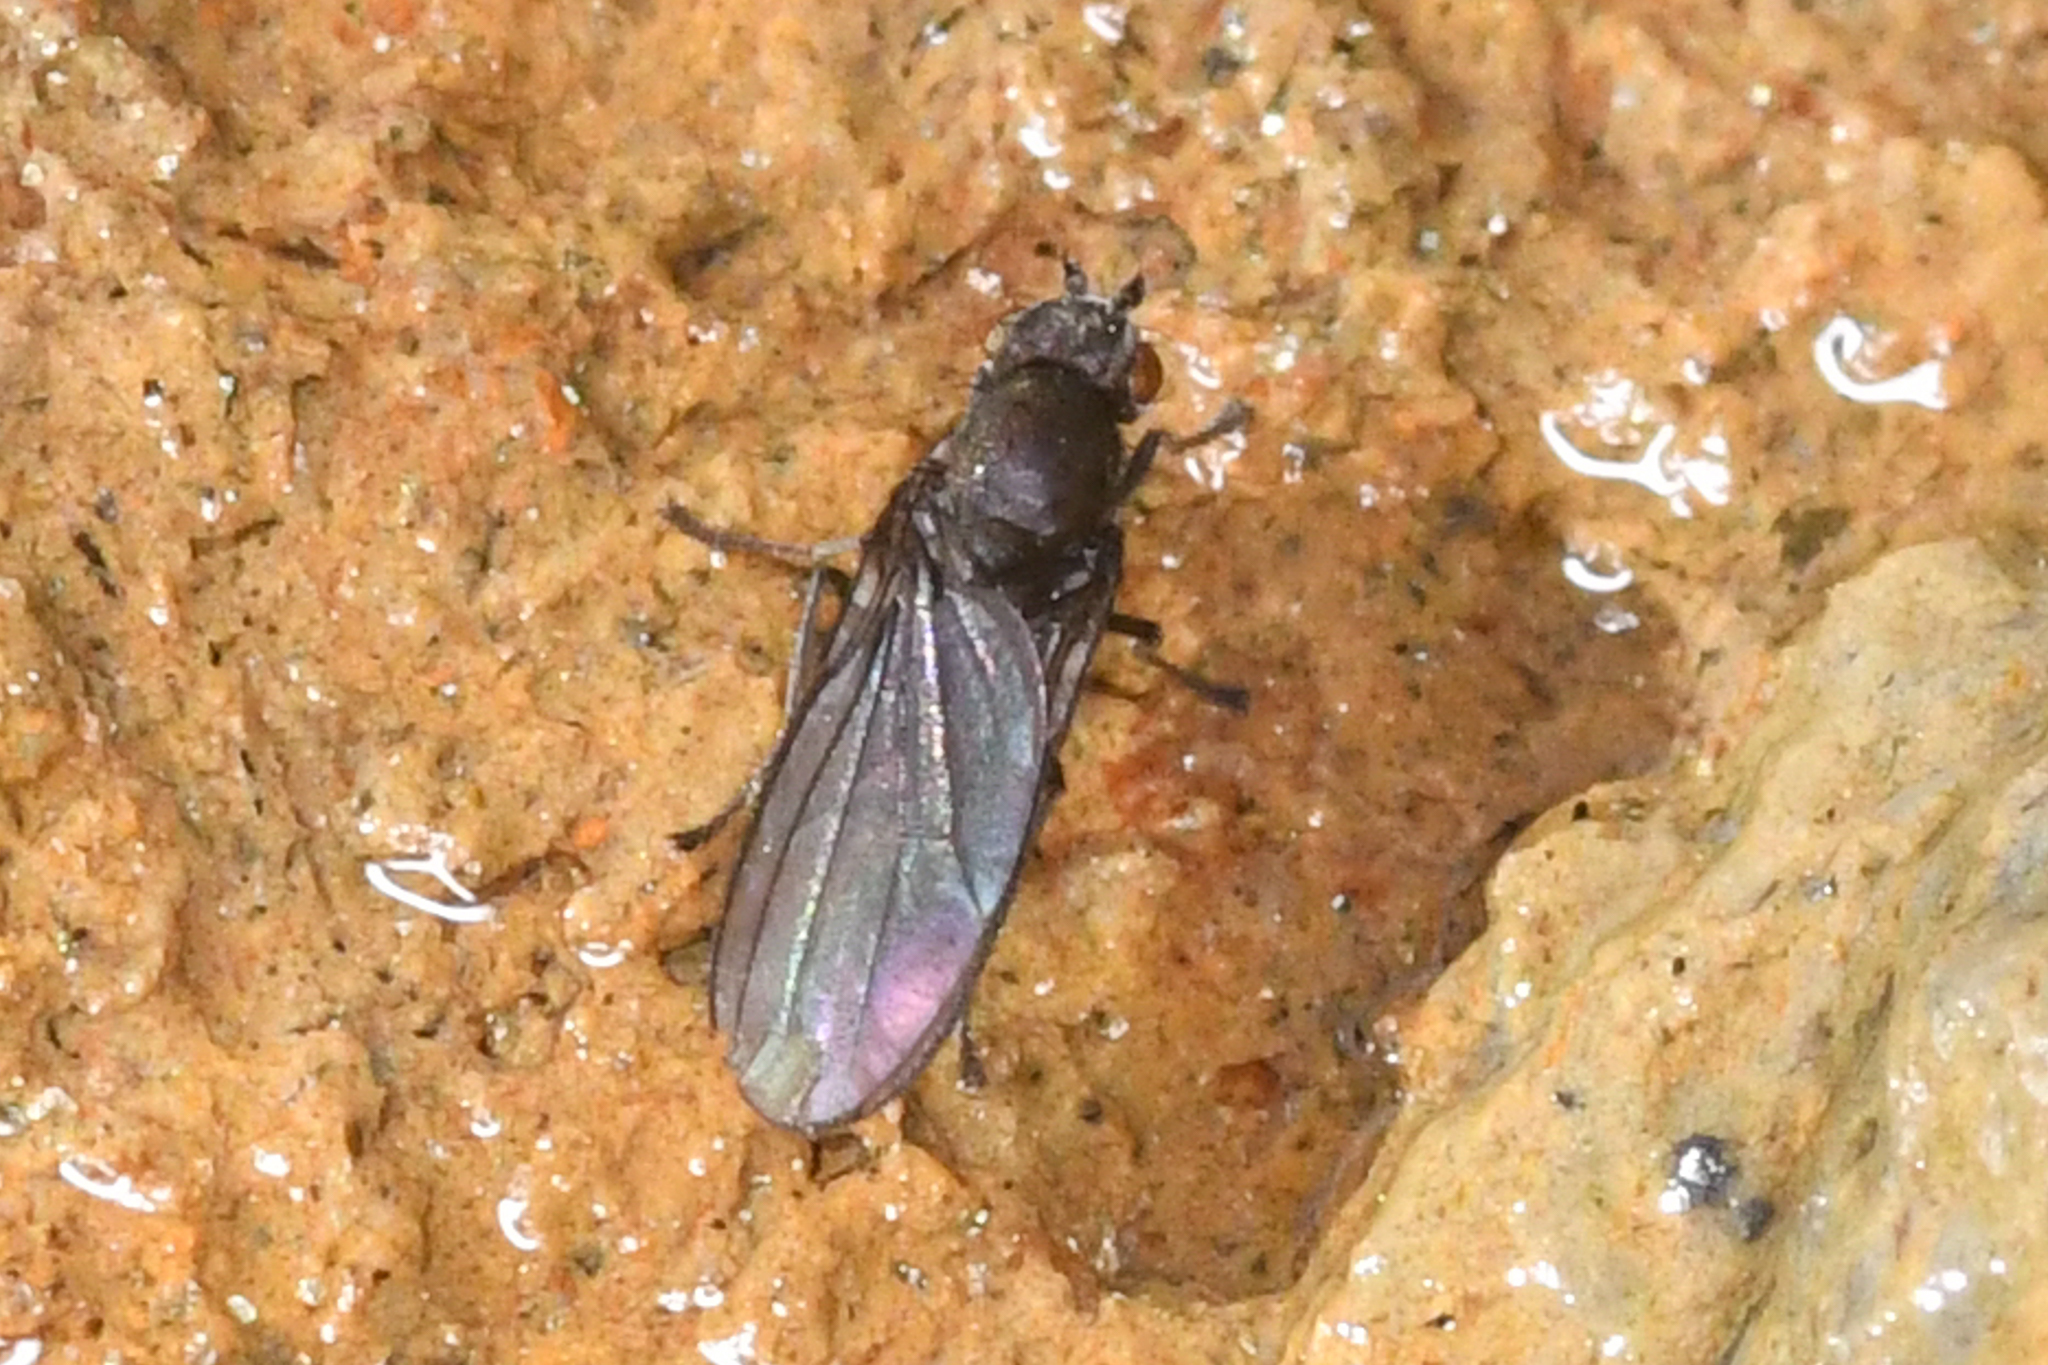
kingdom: Animalia
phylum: Arthropoda
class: Insecta
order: Diptera
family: Canacidae
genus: Canaceoides
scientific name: Canaceoides nudatus
